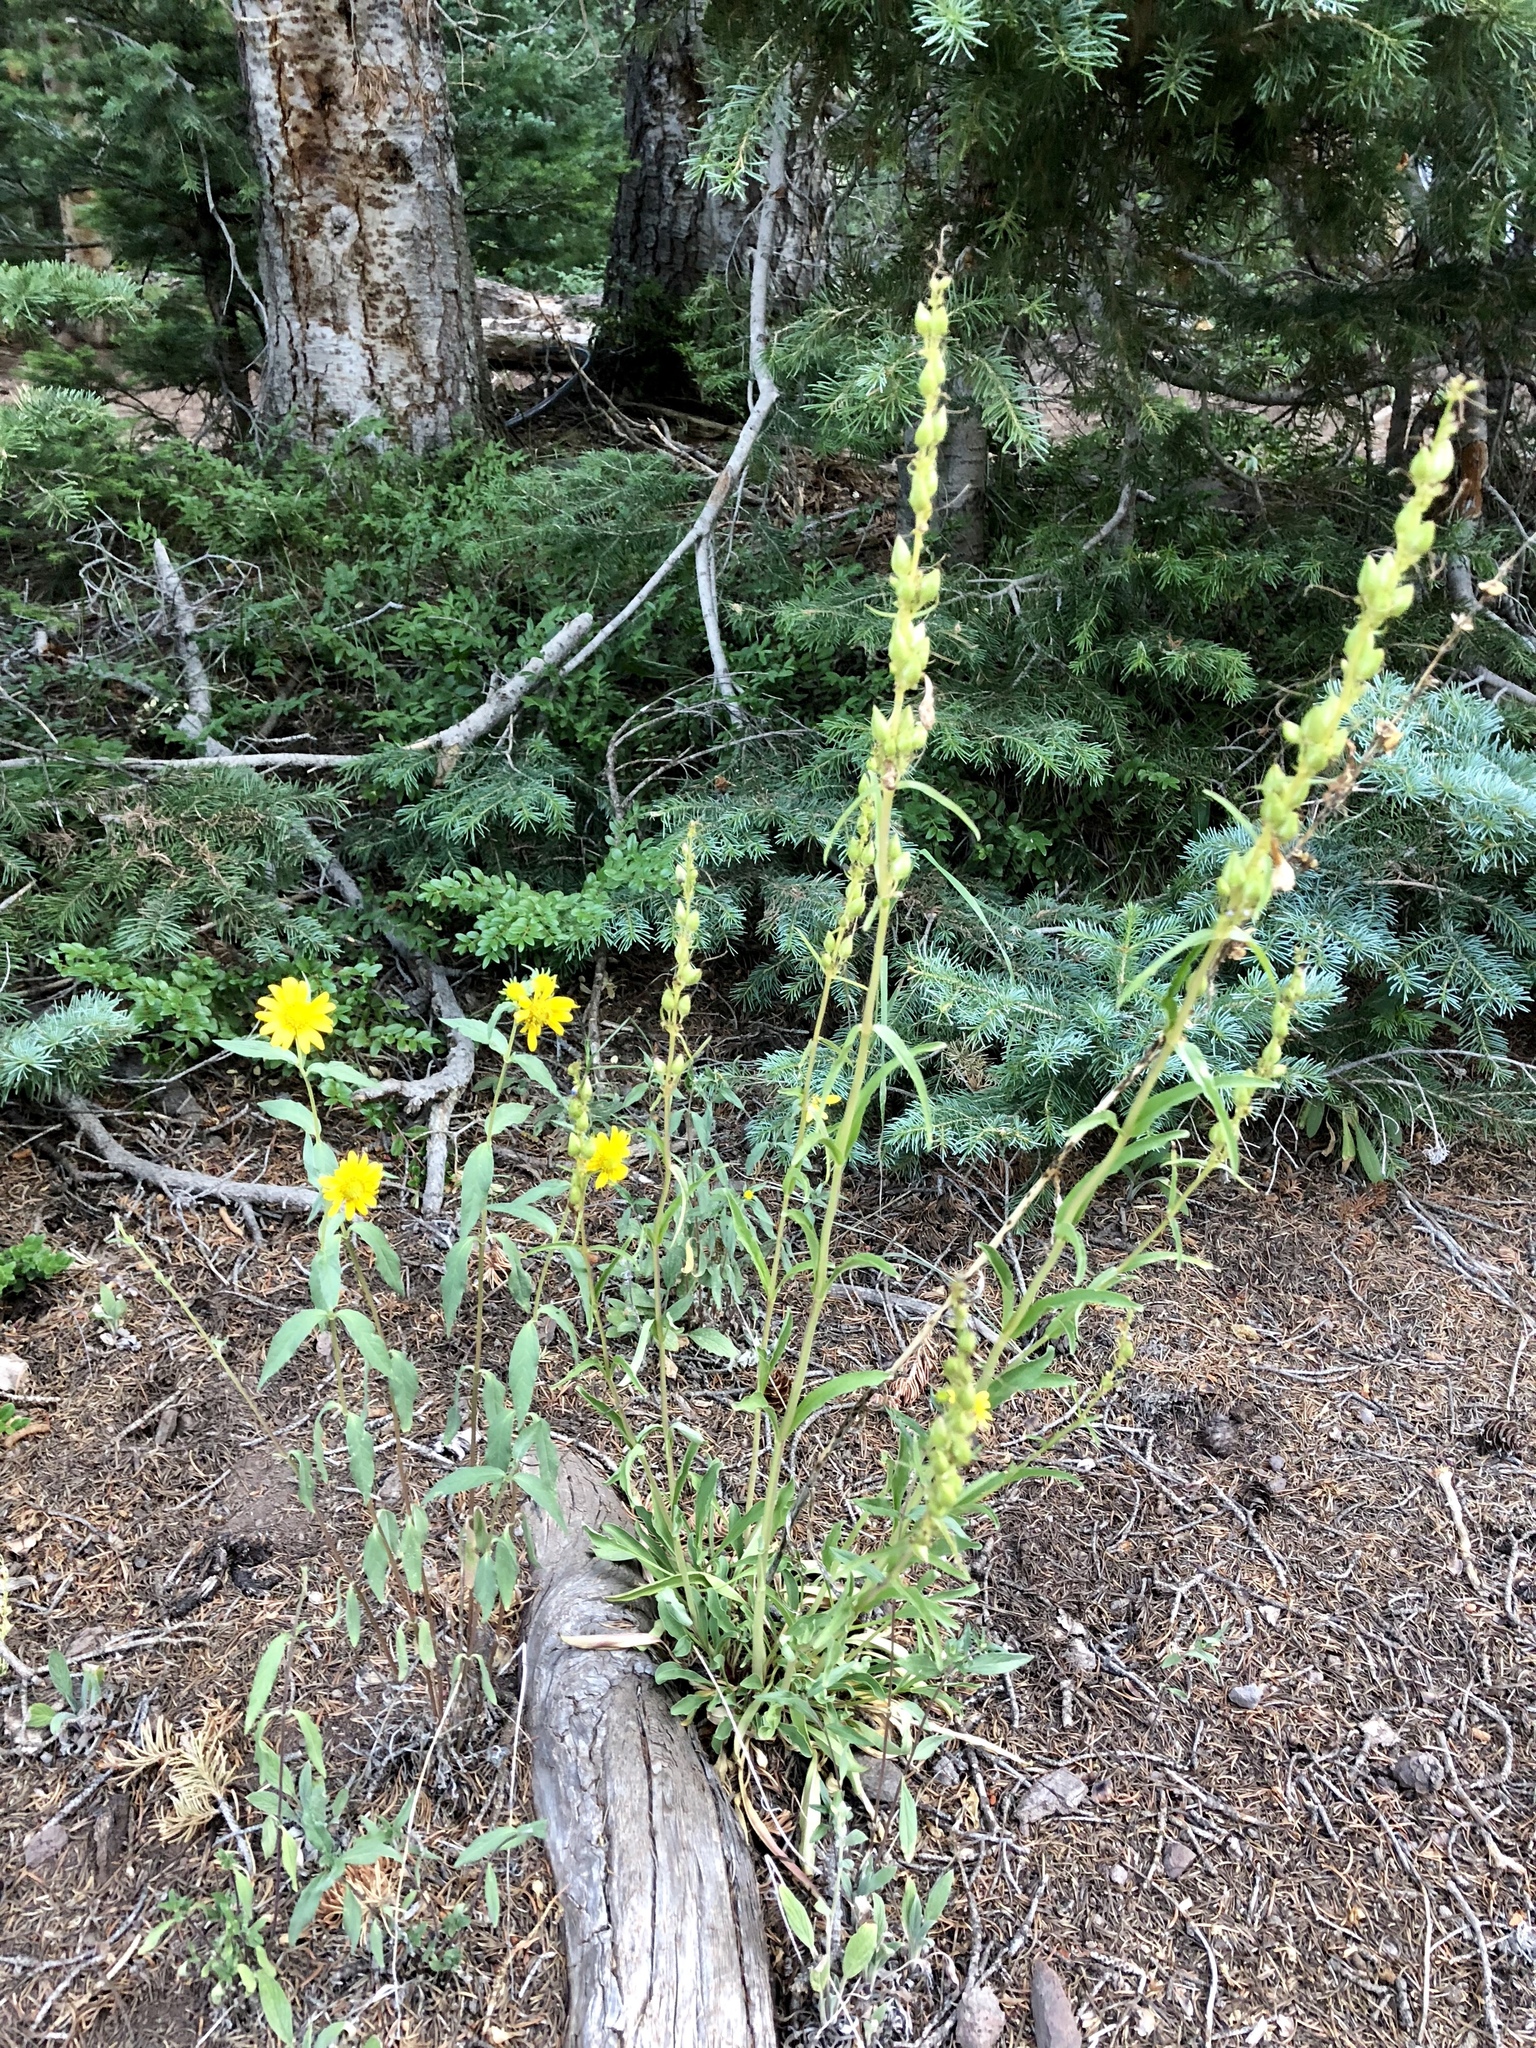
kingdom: Plantae
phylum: Tracheophyta
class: Magnoliopsida
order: Asterales
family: Asteraceae
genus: Heliomeris
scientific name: Heliomeris multiflora
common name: Showy goldeneye
